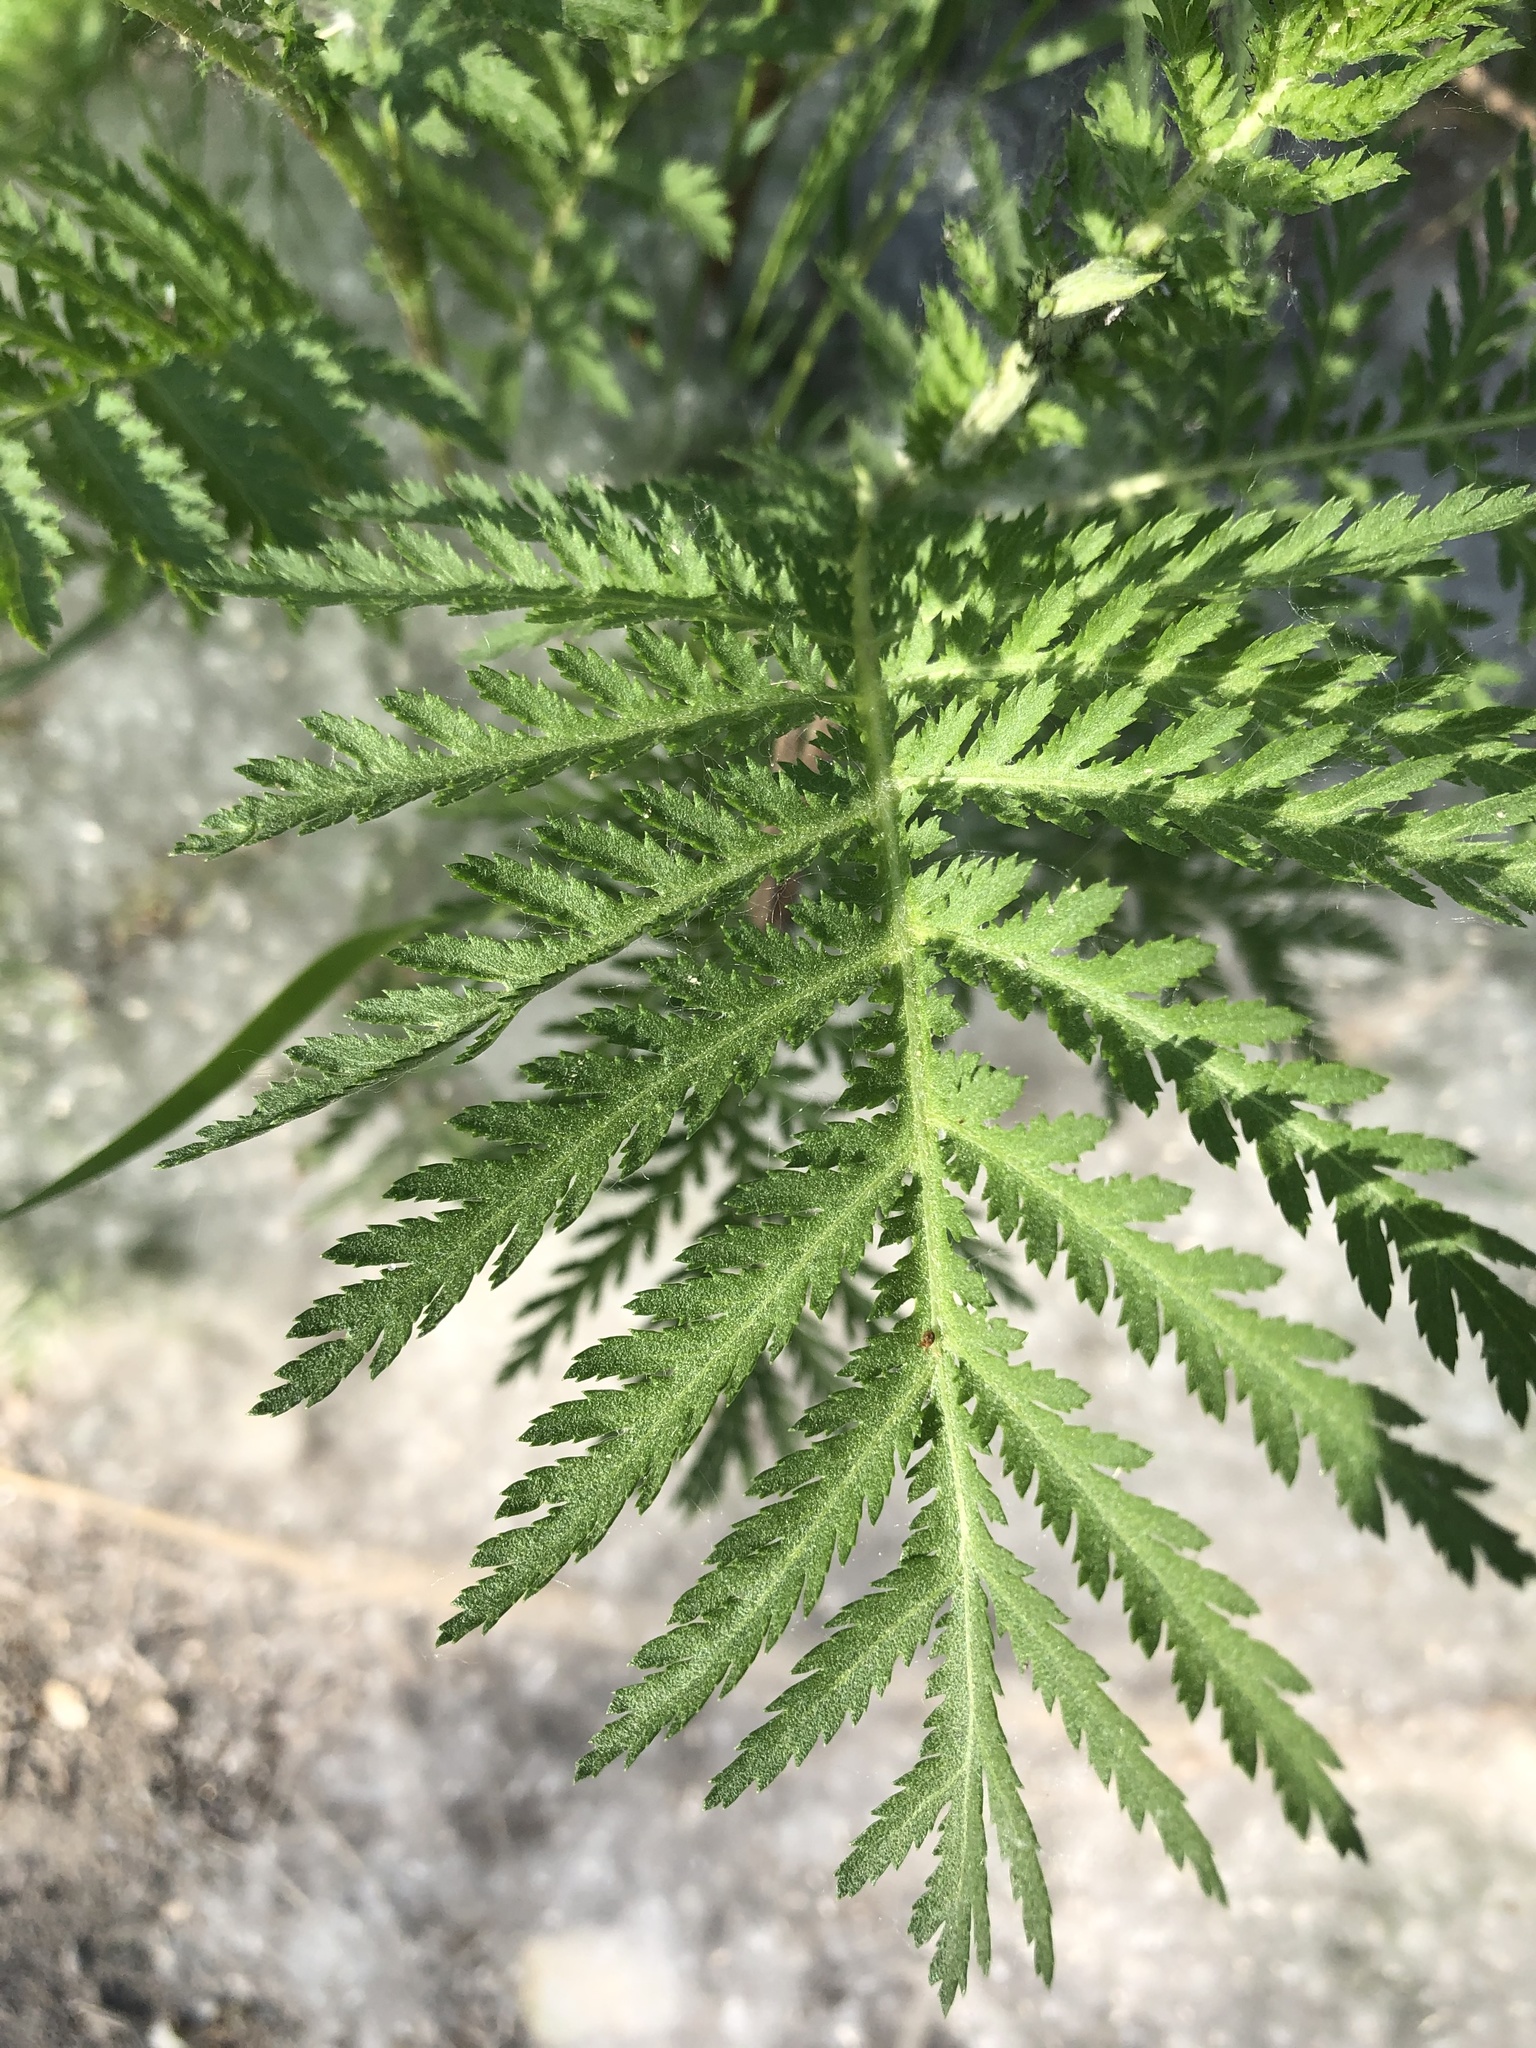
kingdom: Plantae
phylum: Tracheophyta
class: Magnoliopsida
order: Asterales
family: Asteraceae
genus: Tanacetum
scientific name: Tanacetum vulgare
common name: Common tansy
